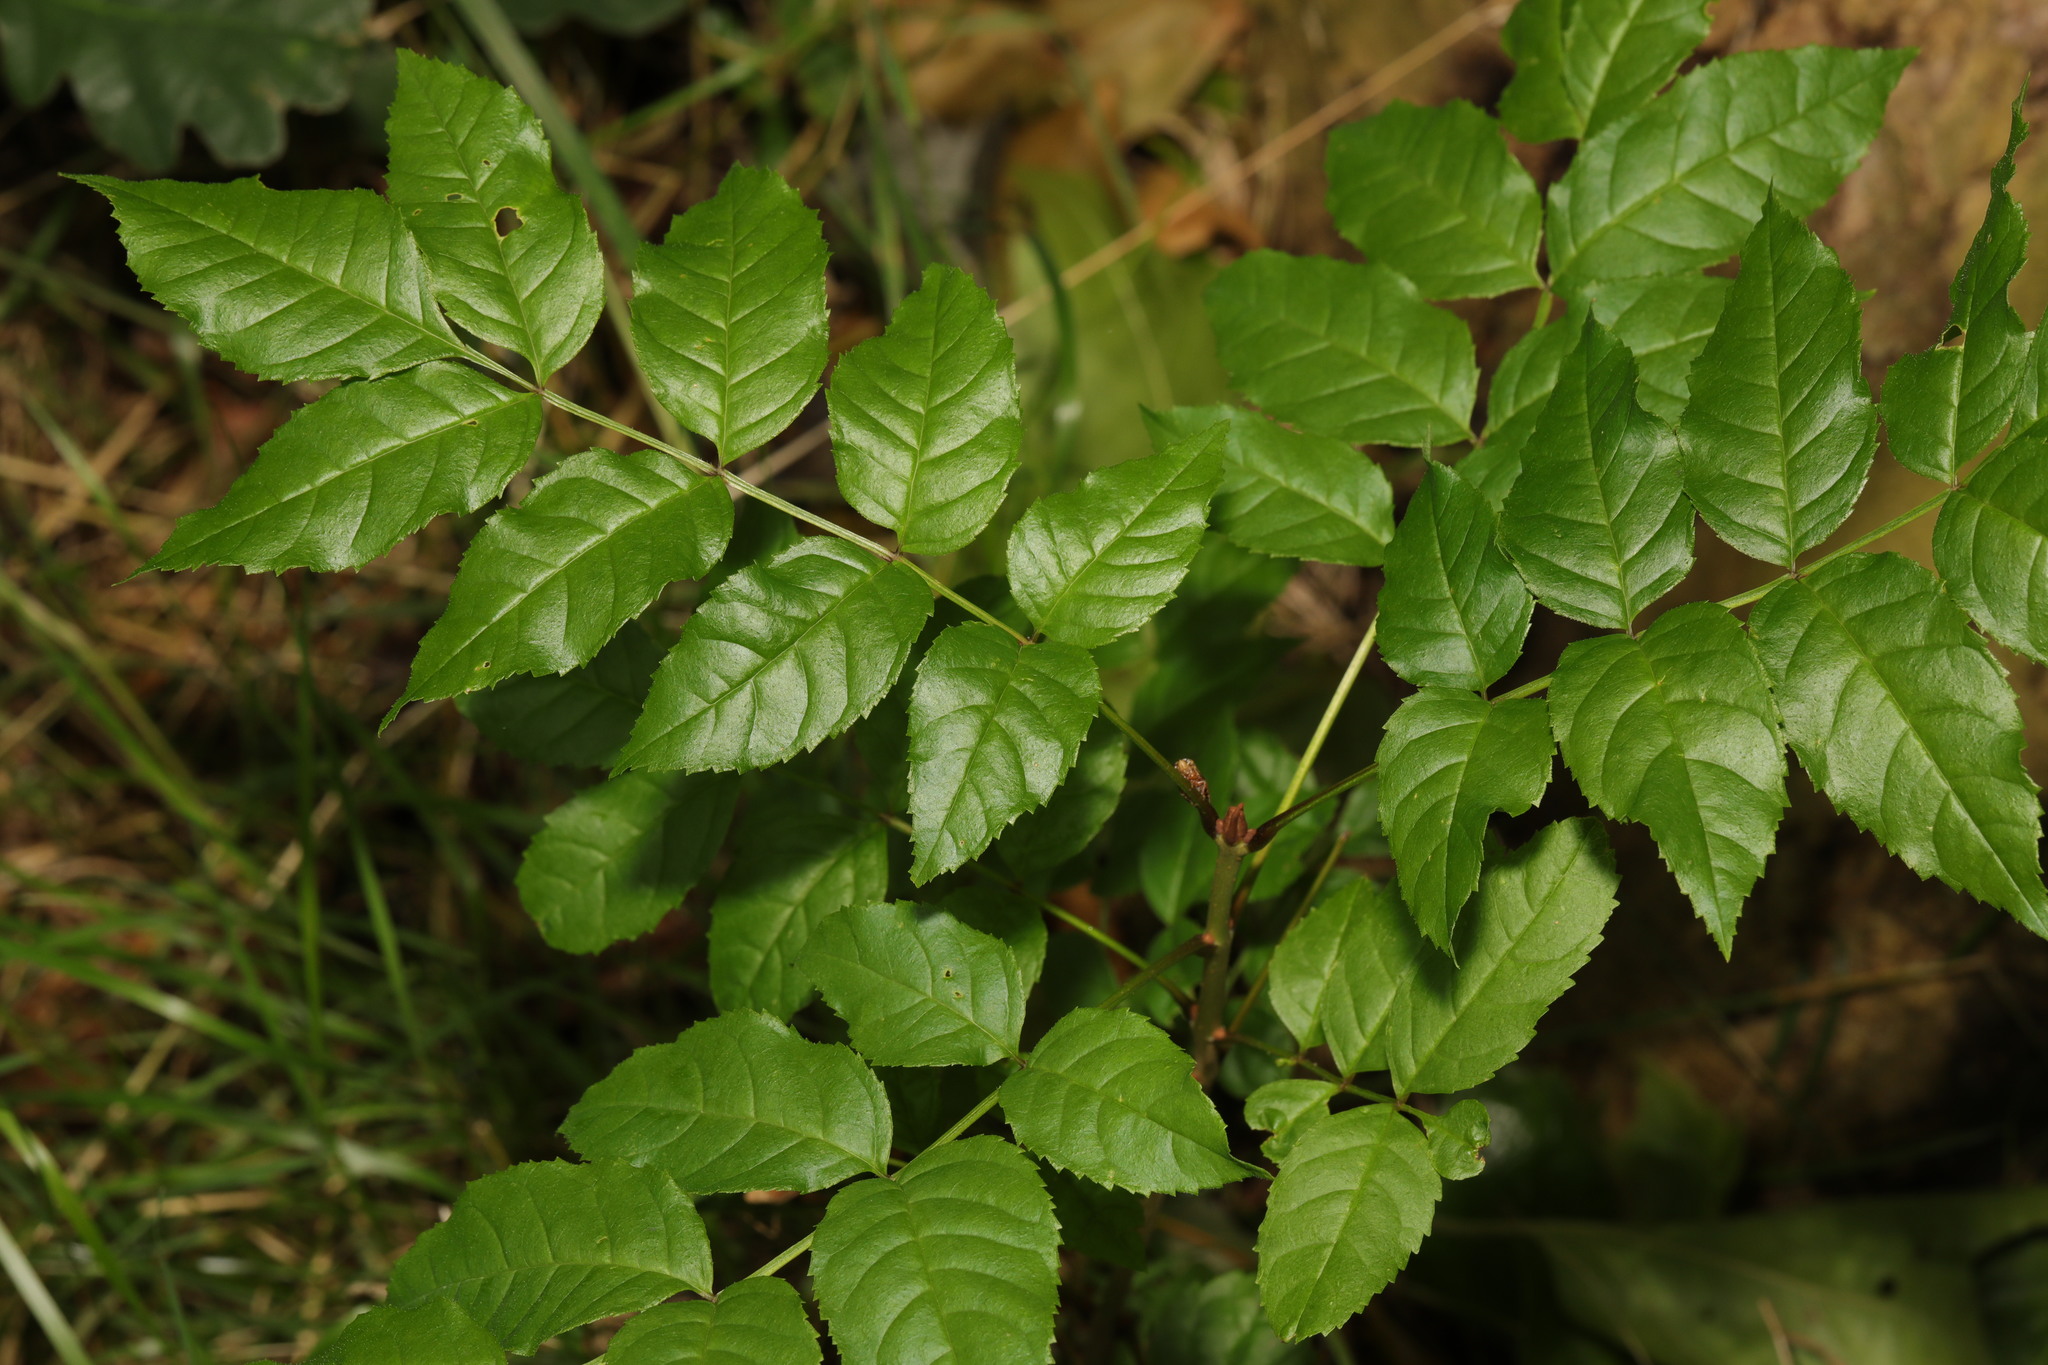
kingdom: Plantae
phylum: Tracheophyta
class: Magnoliopsida
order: Lamiales
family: Oleaceae
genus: Fraxinus
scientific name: Fraxinus excelsior
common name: European ash
